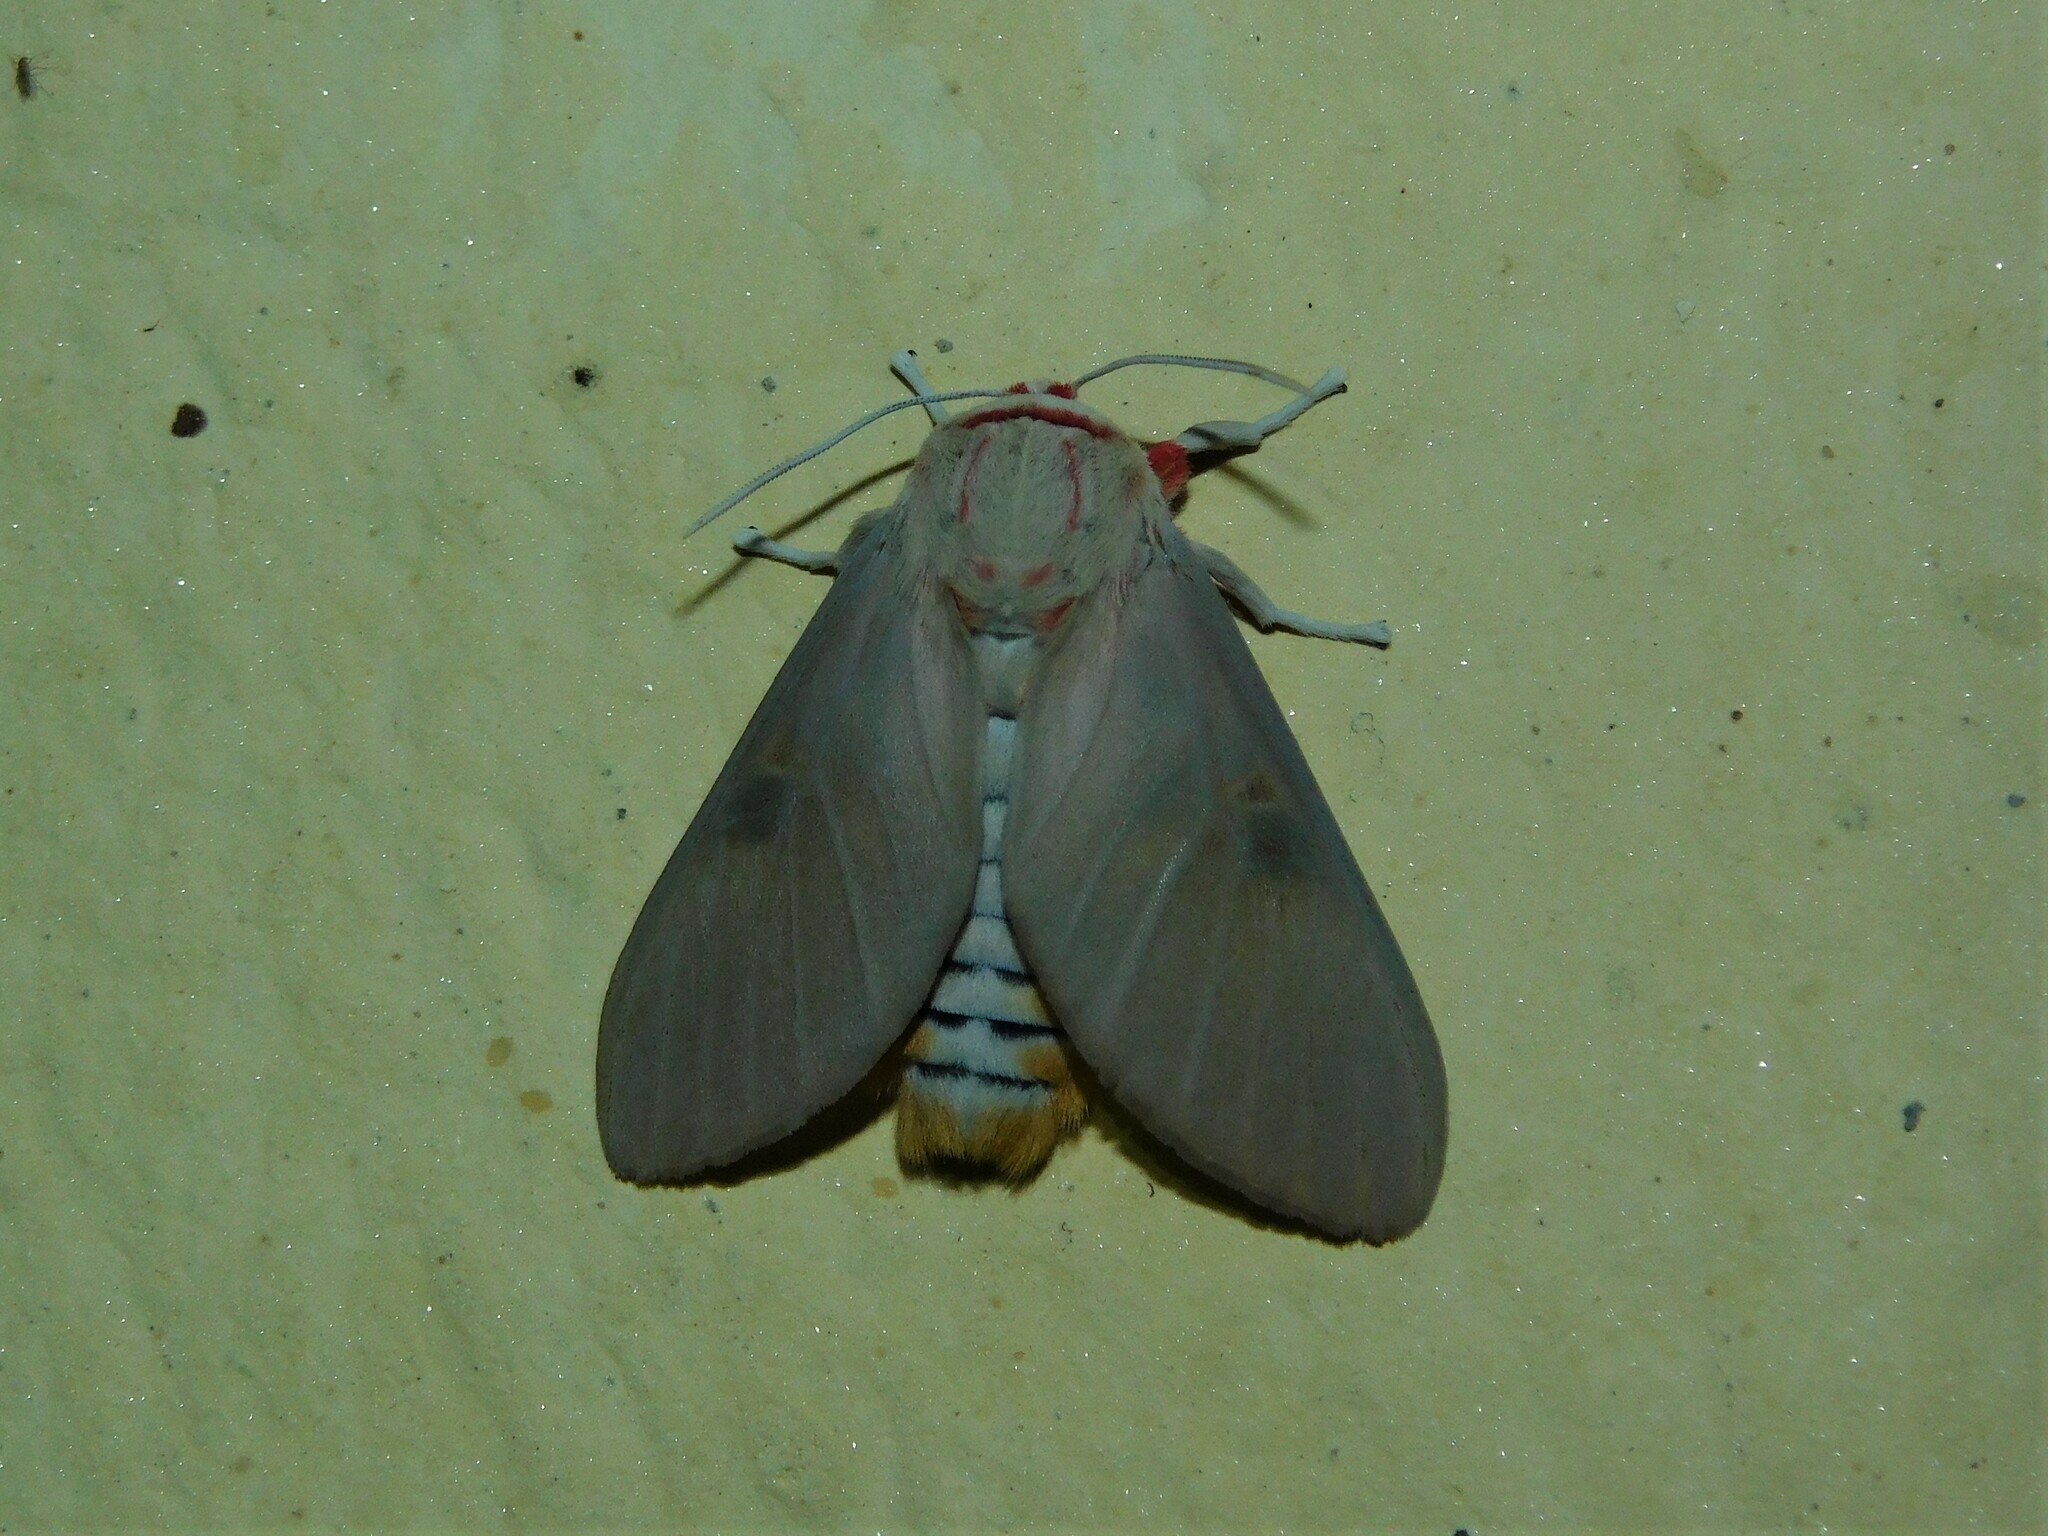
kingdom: Animalia
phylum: Arthropoda
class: Insecta
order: Lepidoptera
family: Erebidae
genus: Balacra
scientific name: Balacra herona
